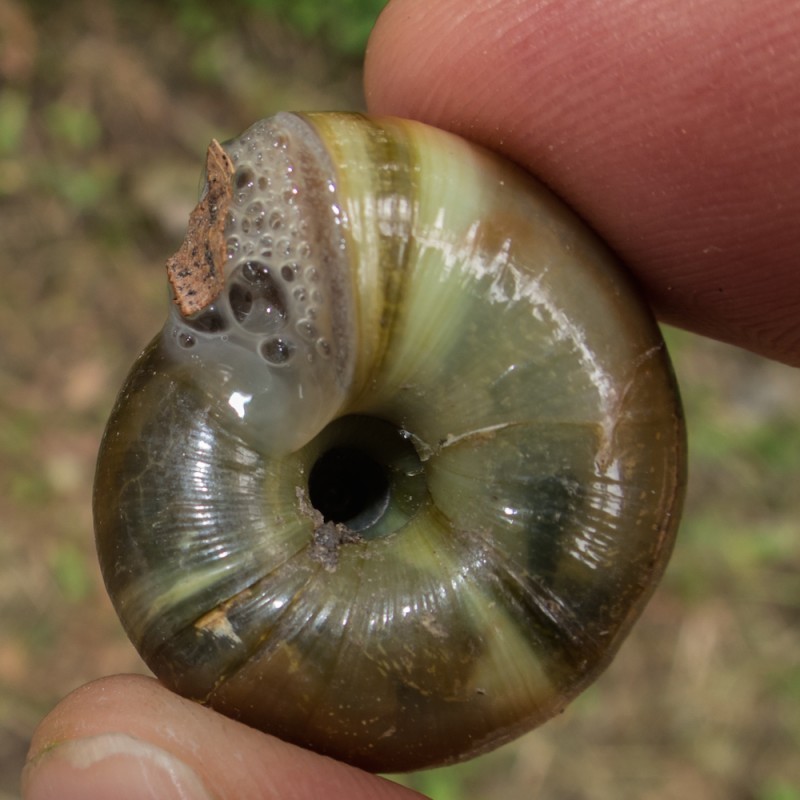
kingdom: Animalia
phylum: Mollusca
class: Gastropoda
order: Stylommatophora
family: Zonitidae
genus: Aegopis
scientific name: Aegopis verticillus
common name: Giant glass snail
